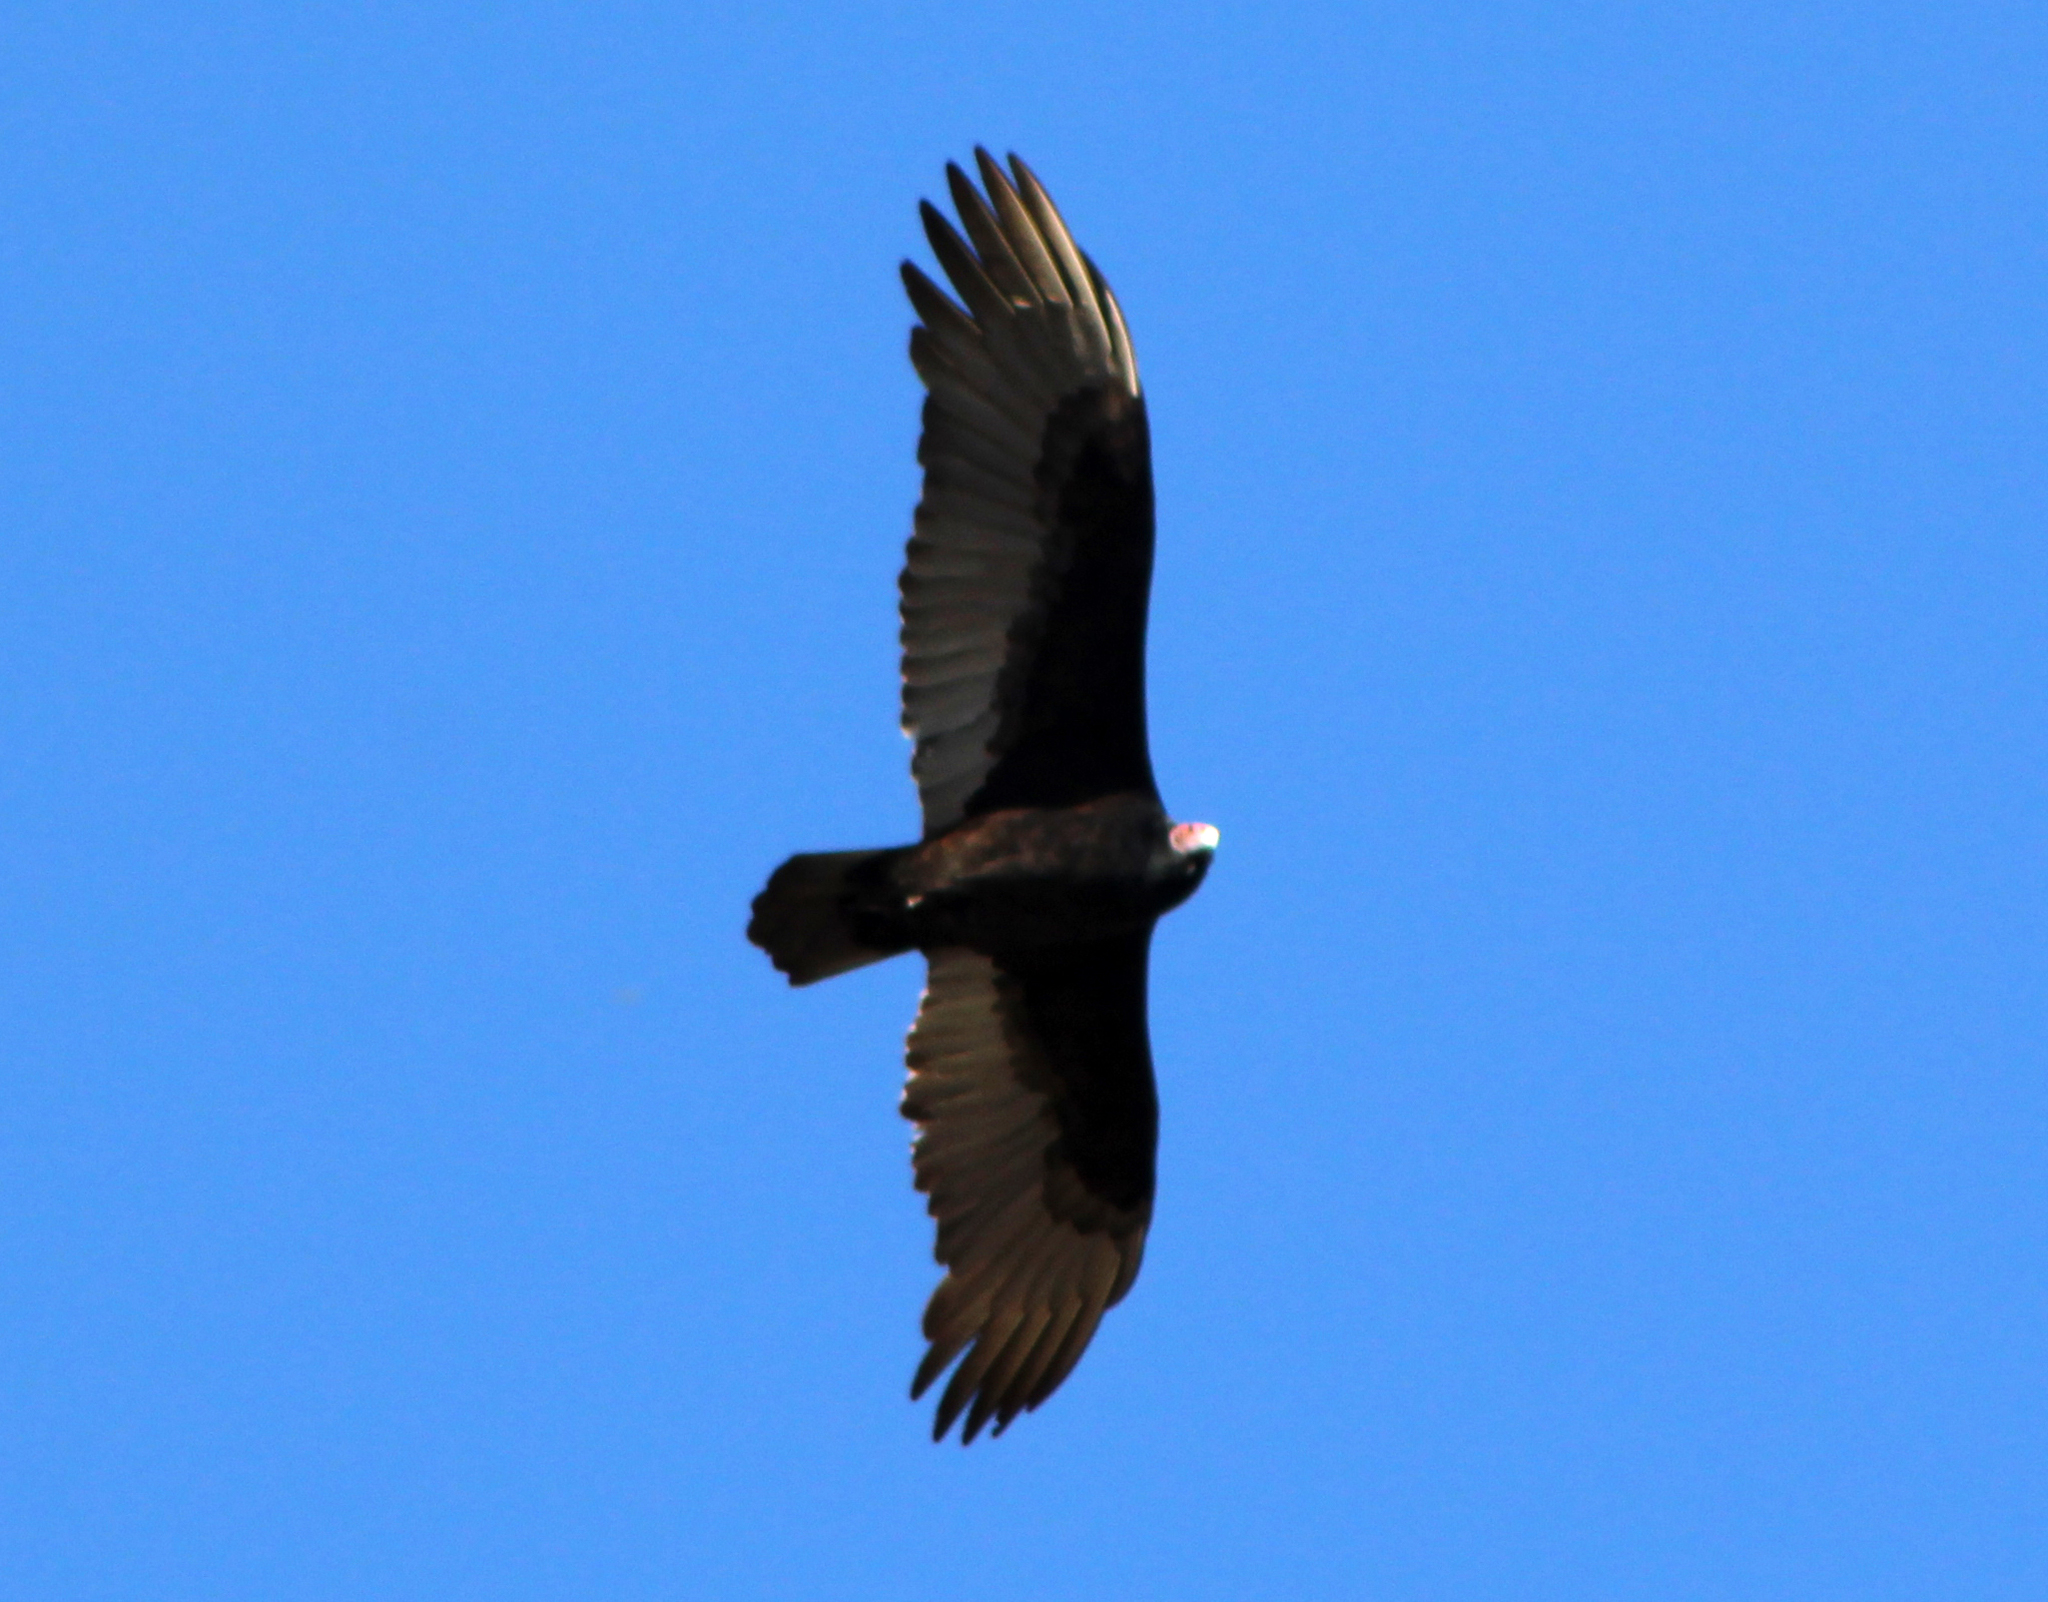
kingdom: Animalia
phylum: Chordata
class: Aves
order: Accipitriformes
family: Cathartidae
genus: Cathartes
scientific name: Cathartes aura
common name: Turkey vulture
